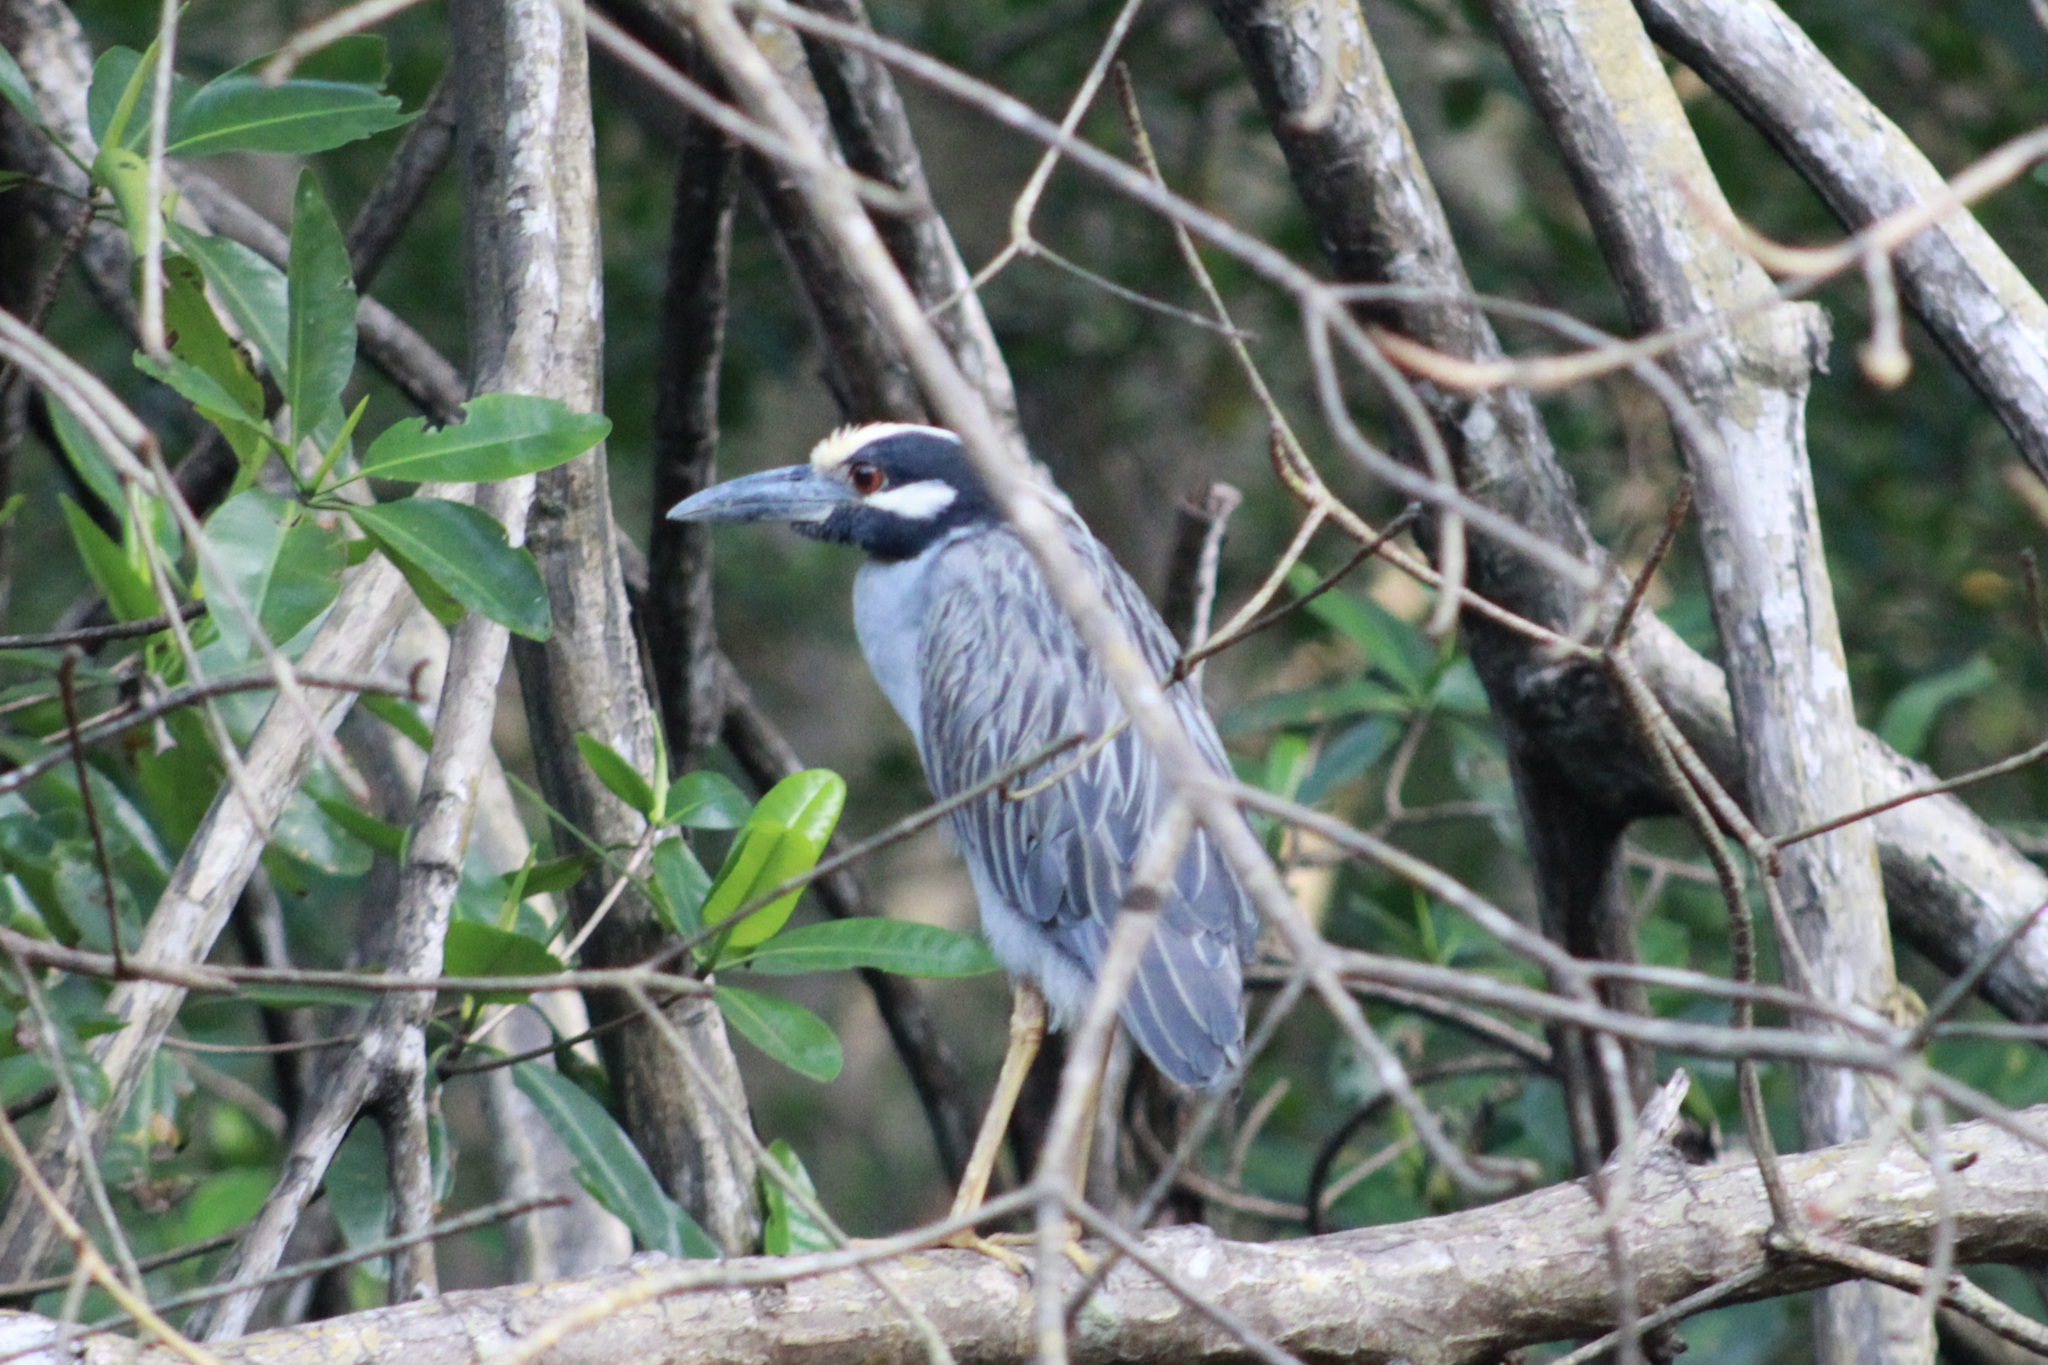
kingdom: Animalia
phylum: Chordata
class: Aves
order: Pelecaniformes
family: Ardeidae
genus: Nyctanassa
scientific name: Nyctanassa violacea
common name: Yellow-crowned night heron
